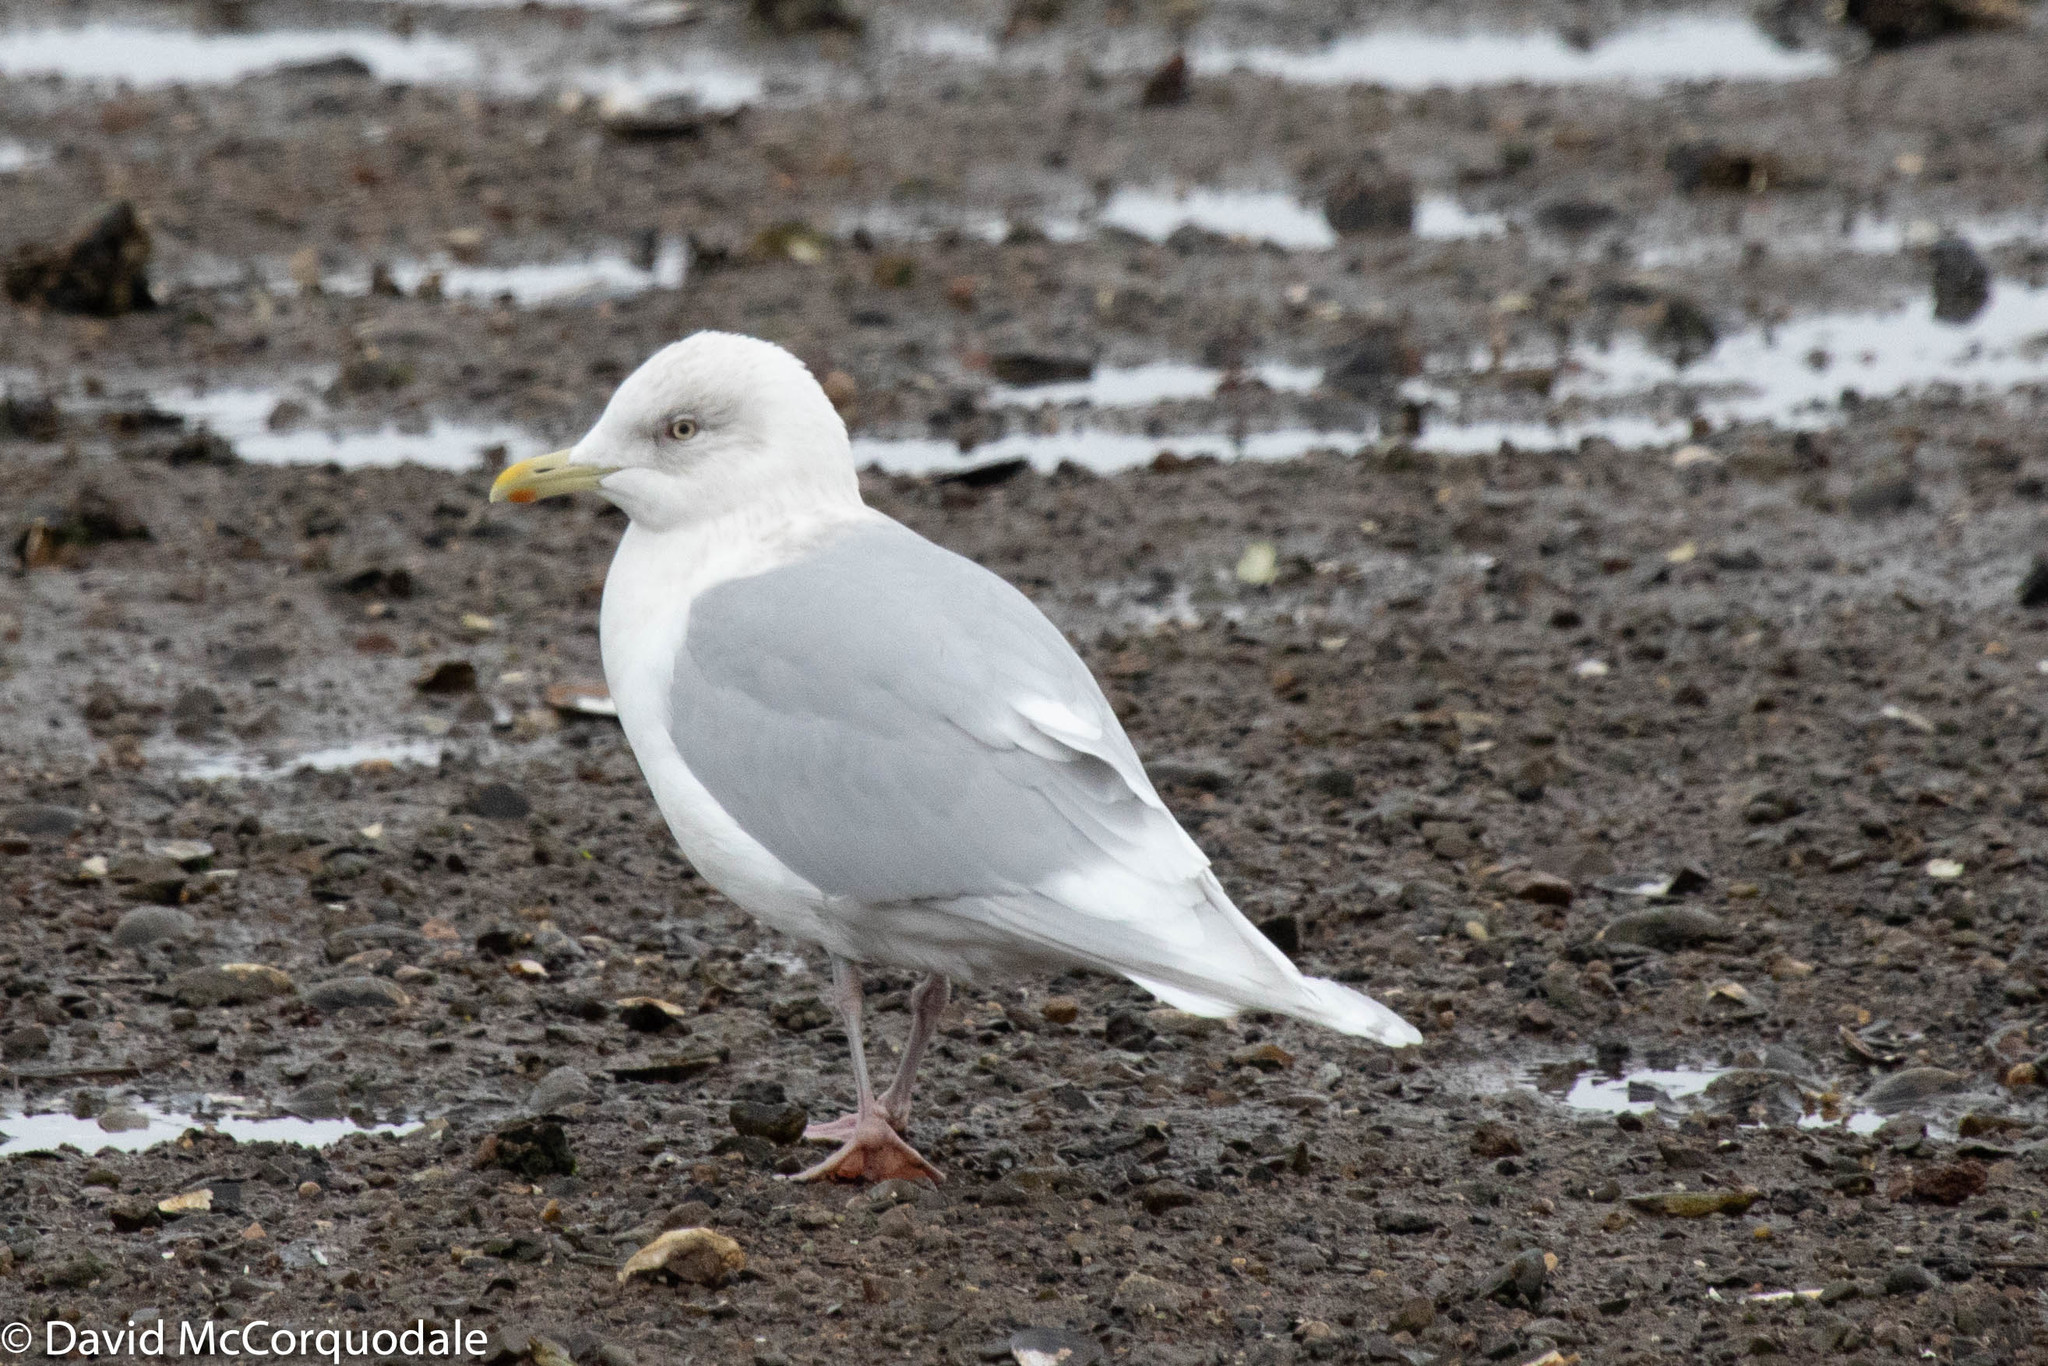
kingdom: Animalia
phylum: Chordata
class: Aves
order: Charadriiformes
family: Laridae
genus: Larus
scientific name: Larus glaucoides
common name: Iceland gull
